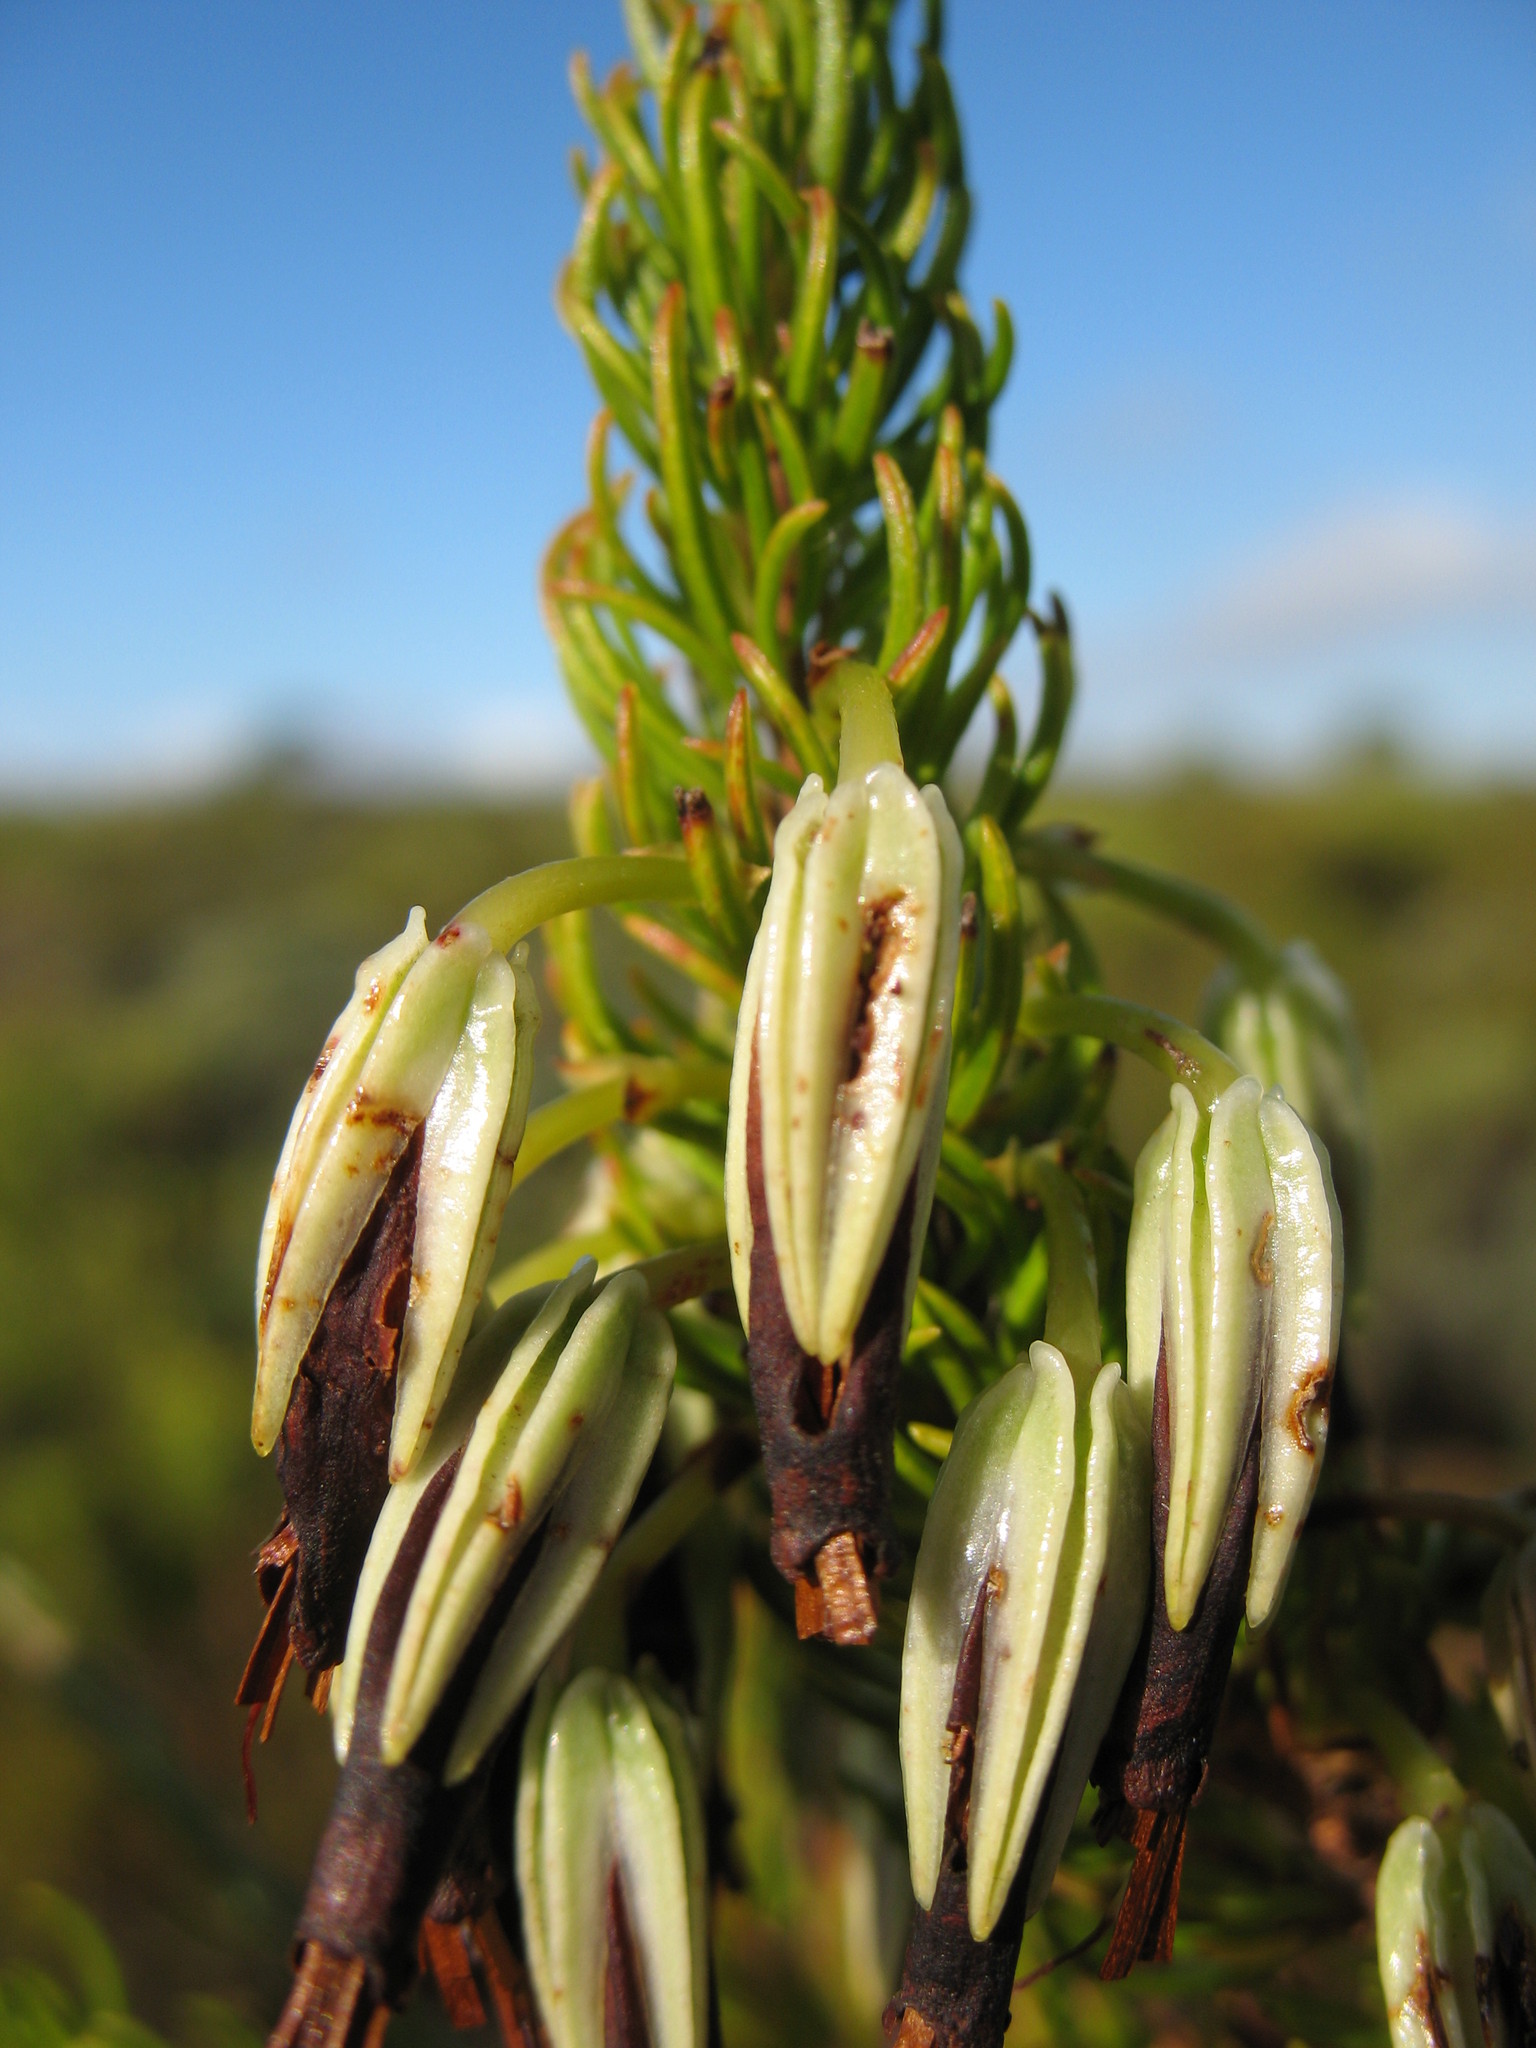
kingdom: Plantae
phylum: Tracheophyta
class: Magnoliopsida
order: Ericales
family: Ericaceae
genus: Erica
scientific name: Erica plukenetii
